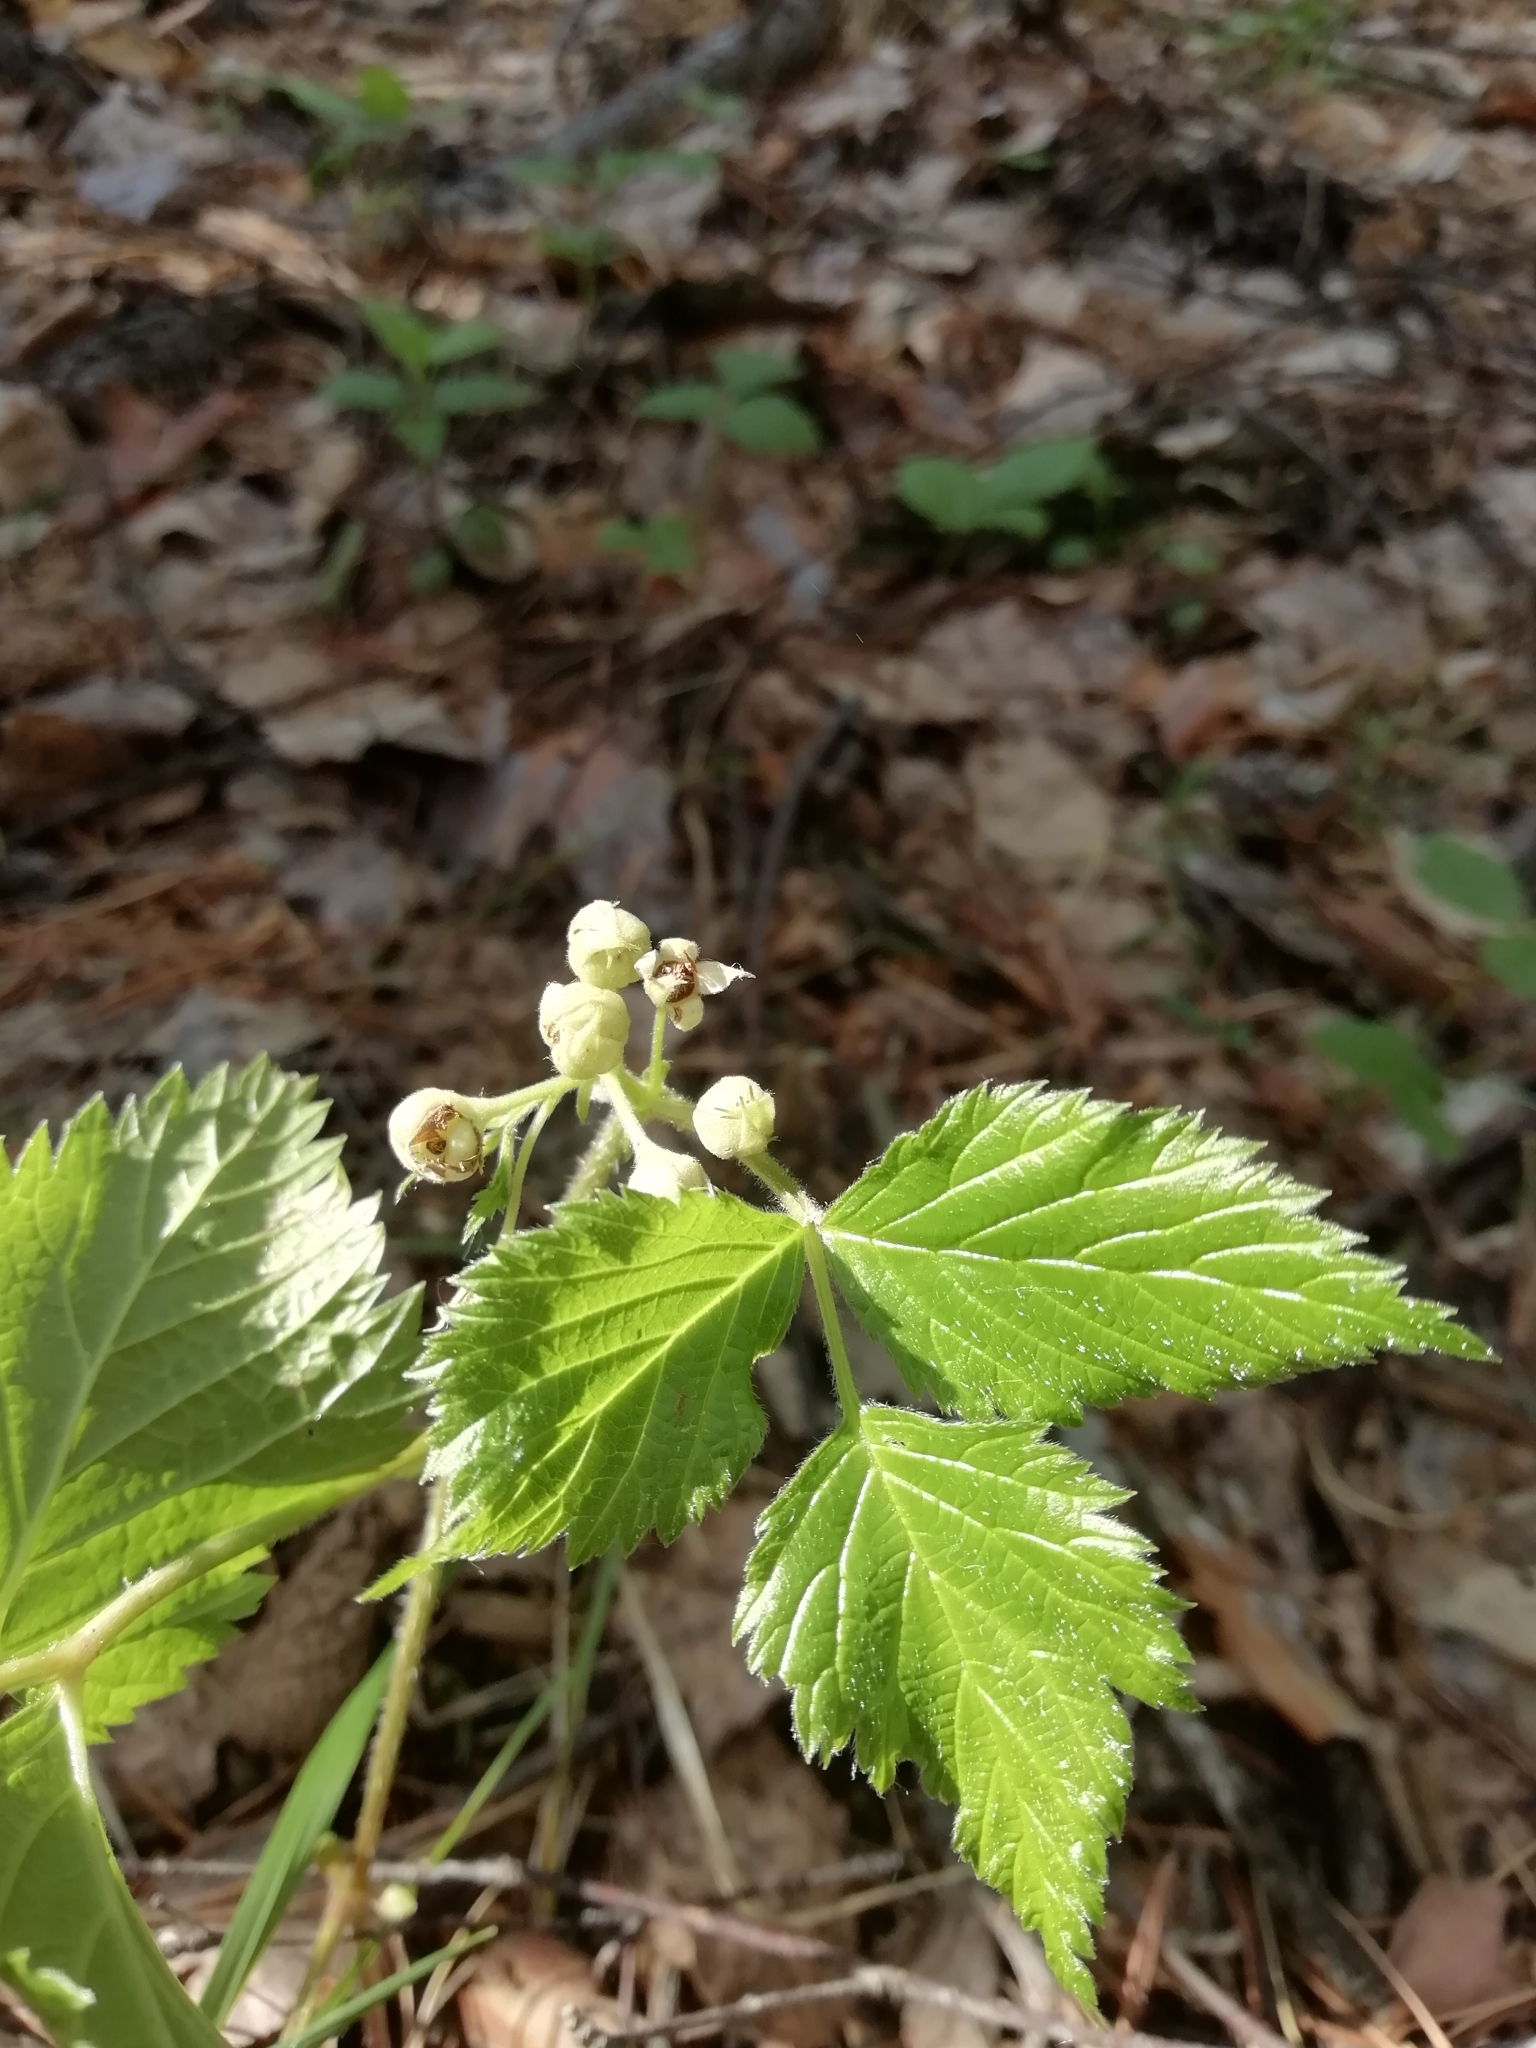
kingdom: Plantae
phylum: Tracheophyta
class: Magnoliopsida
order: Rosales
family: Rosaceae
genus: Rubus
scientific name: Rubus saxatilis
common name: Stone bramble
